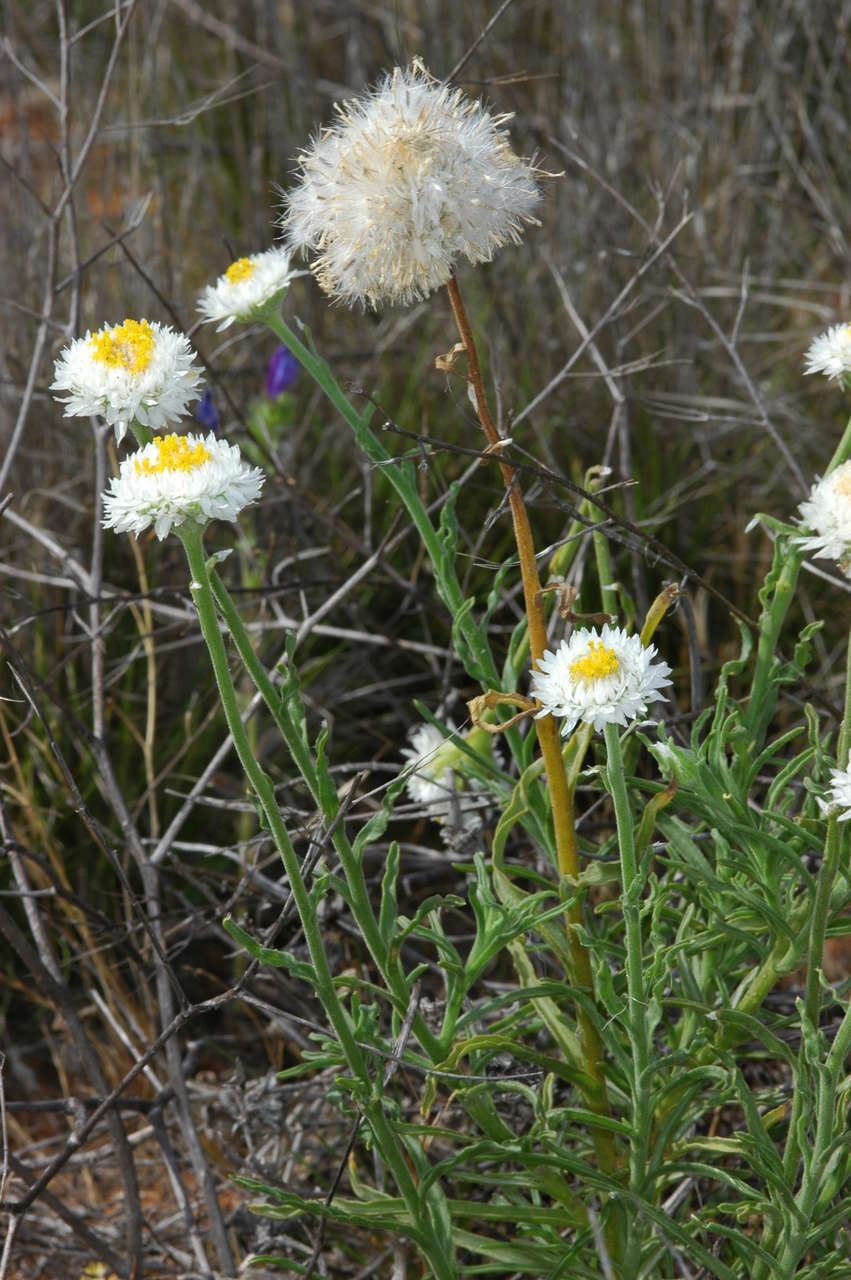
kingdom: Plantae
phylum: Tracheophyta
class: Magnoliopsida
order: Asterales
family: Asteraceae
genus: Polycalymma
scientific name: Polycalymma stuartii
